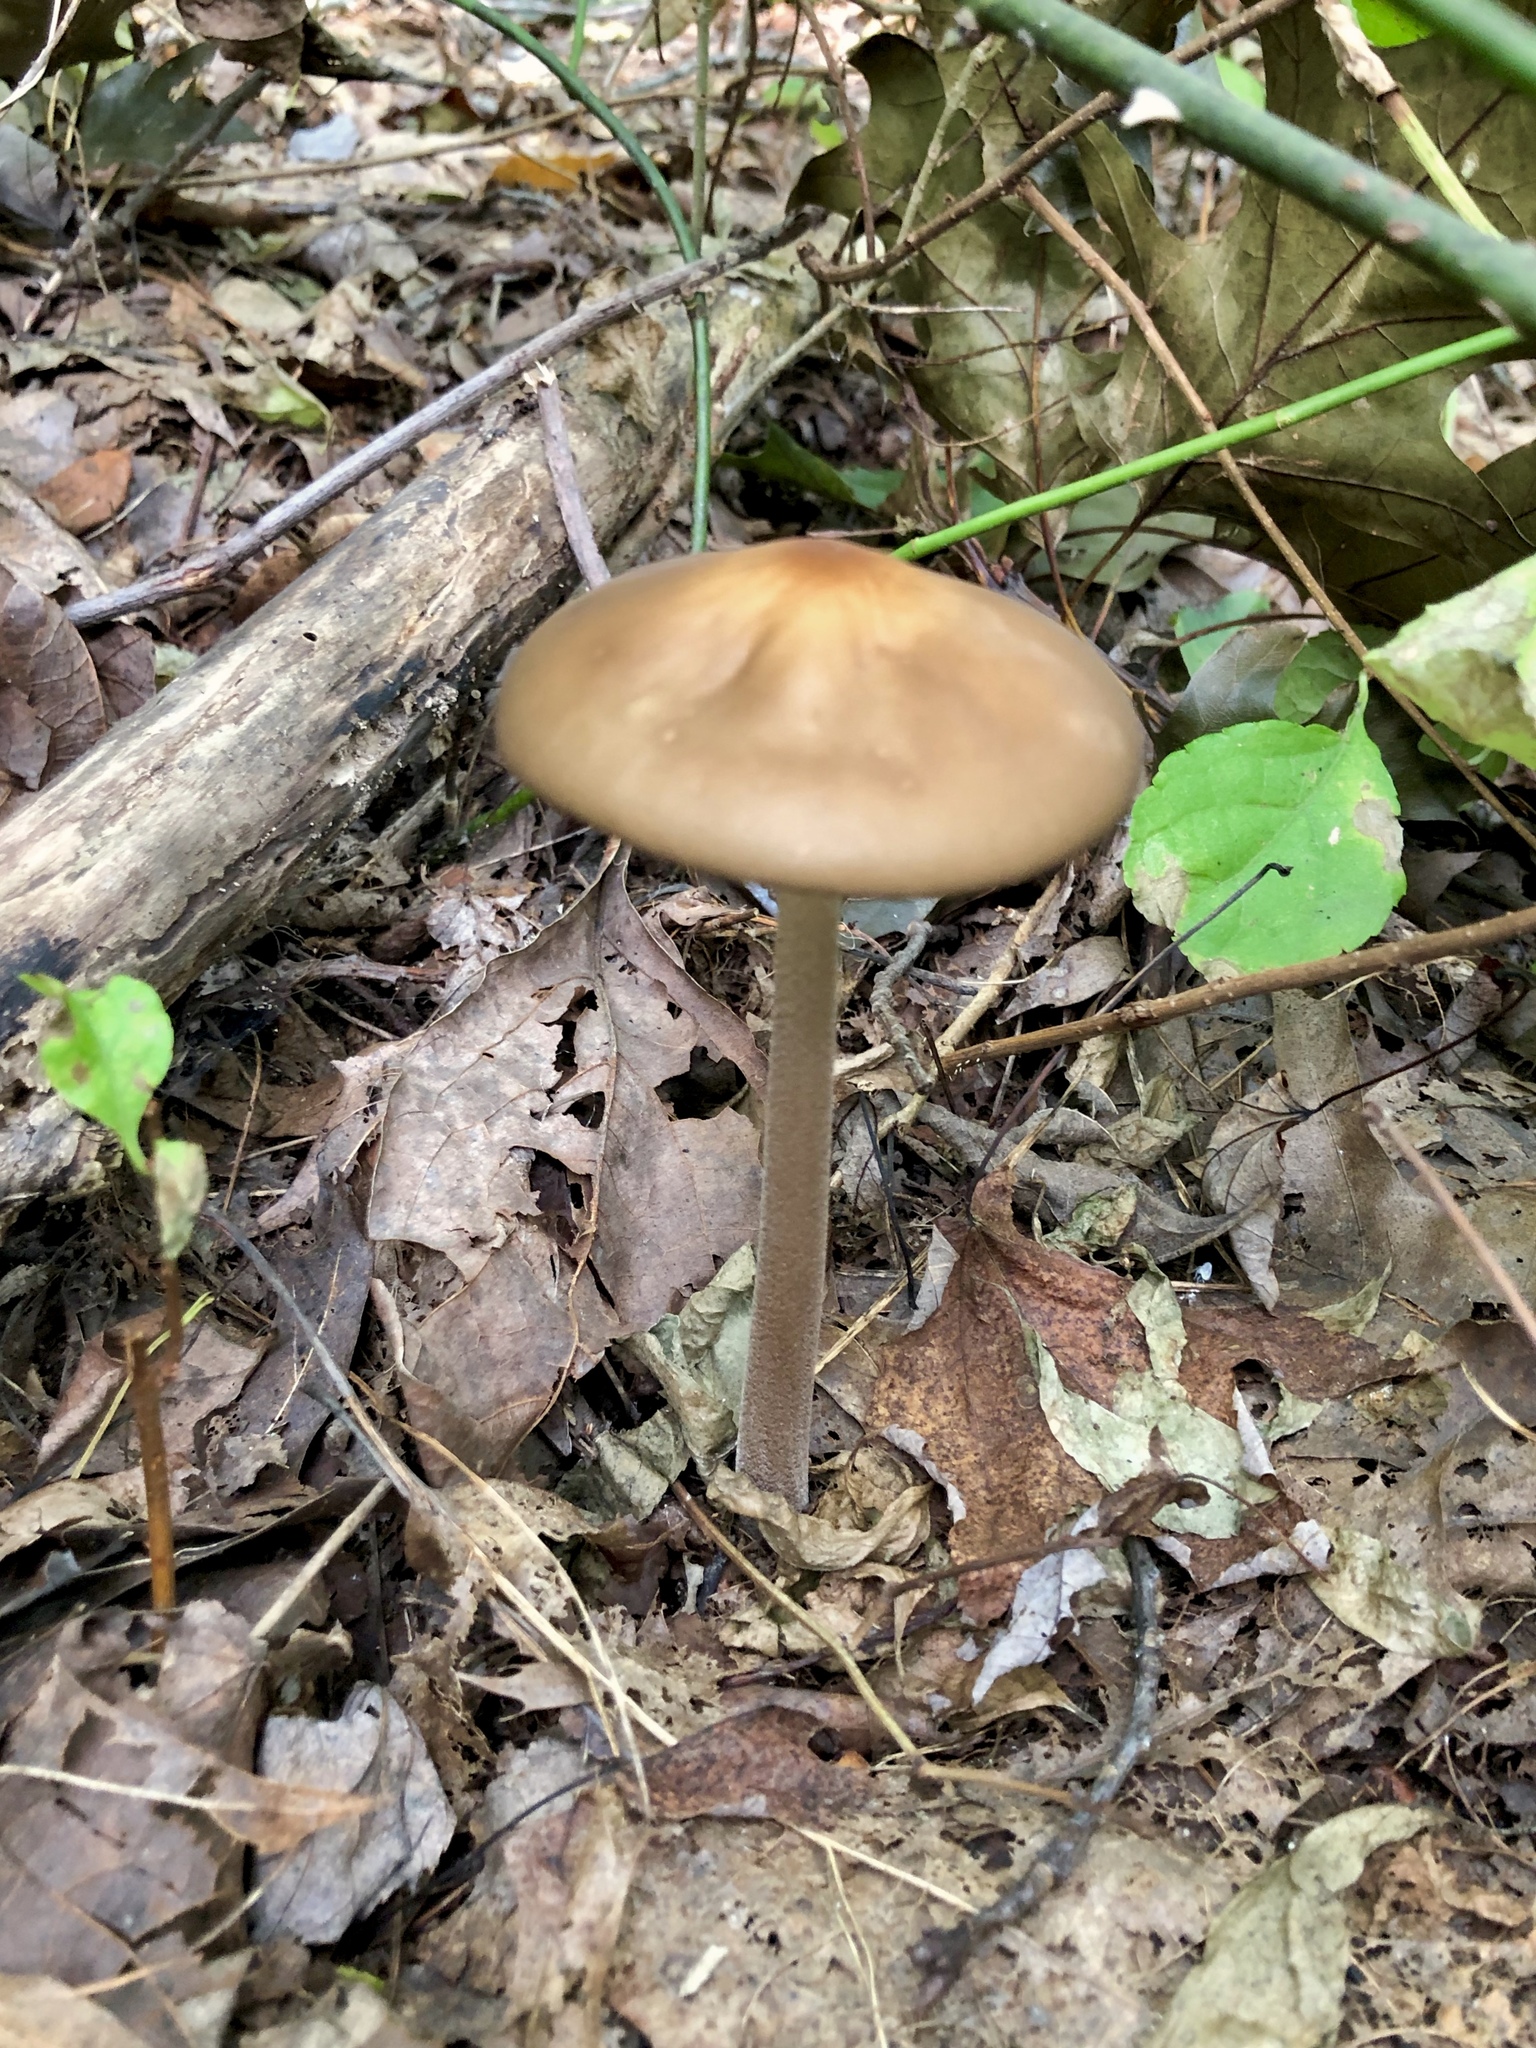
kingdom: Fungi
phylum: Basidiomycota
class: Agaricomycetes
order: Agaricales
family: Physalacriaceae
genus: Hymenopellis
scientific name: Hymenopellis furfuracea
